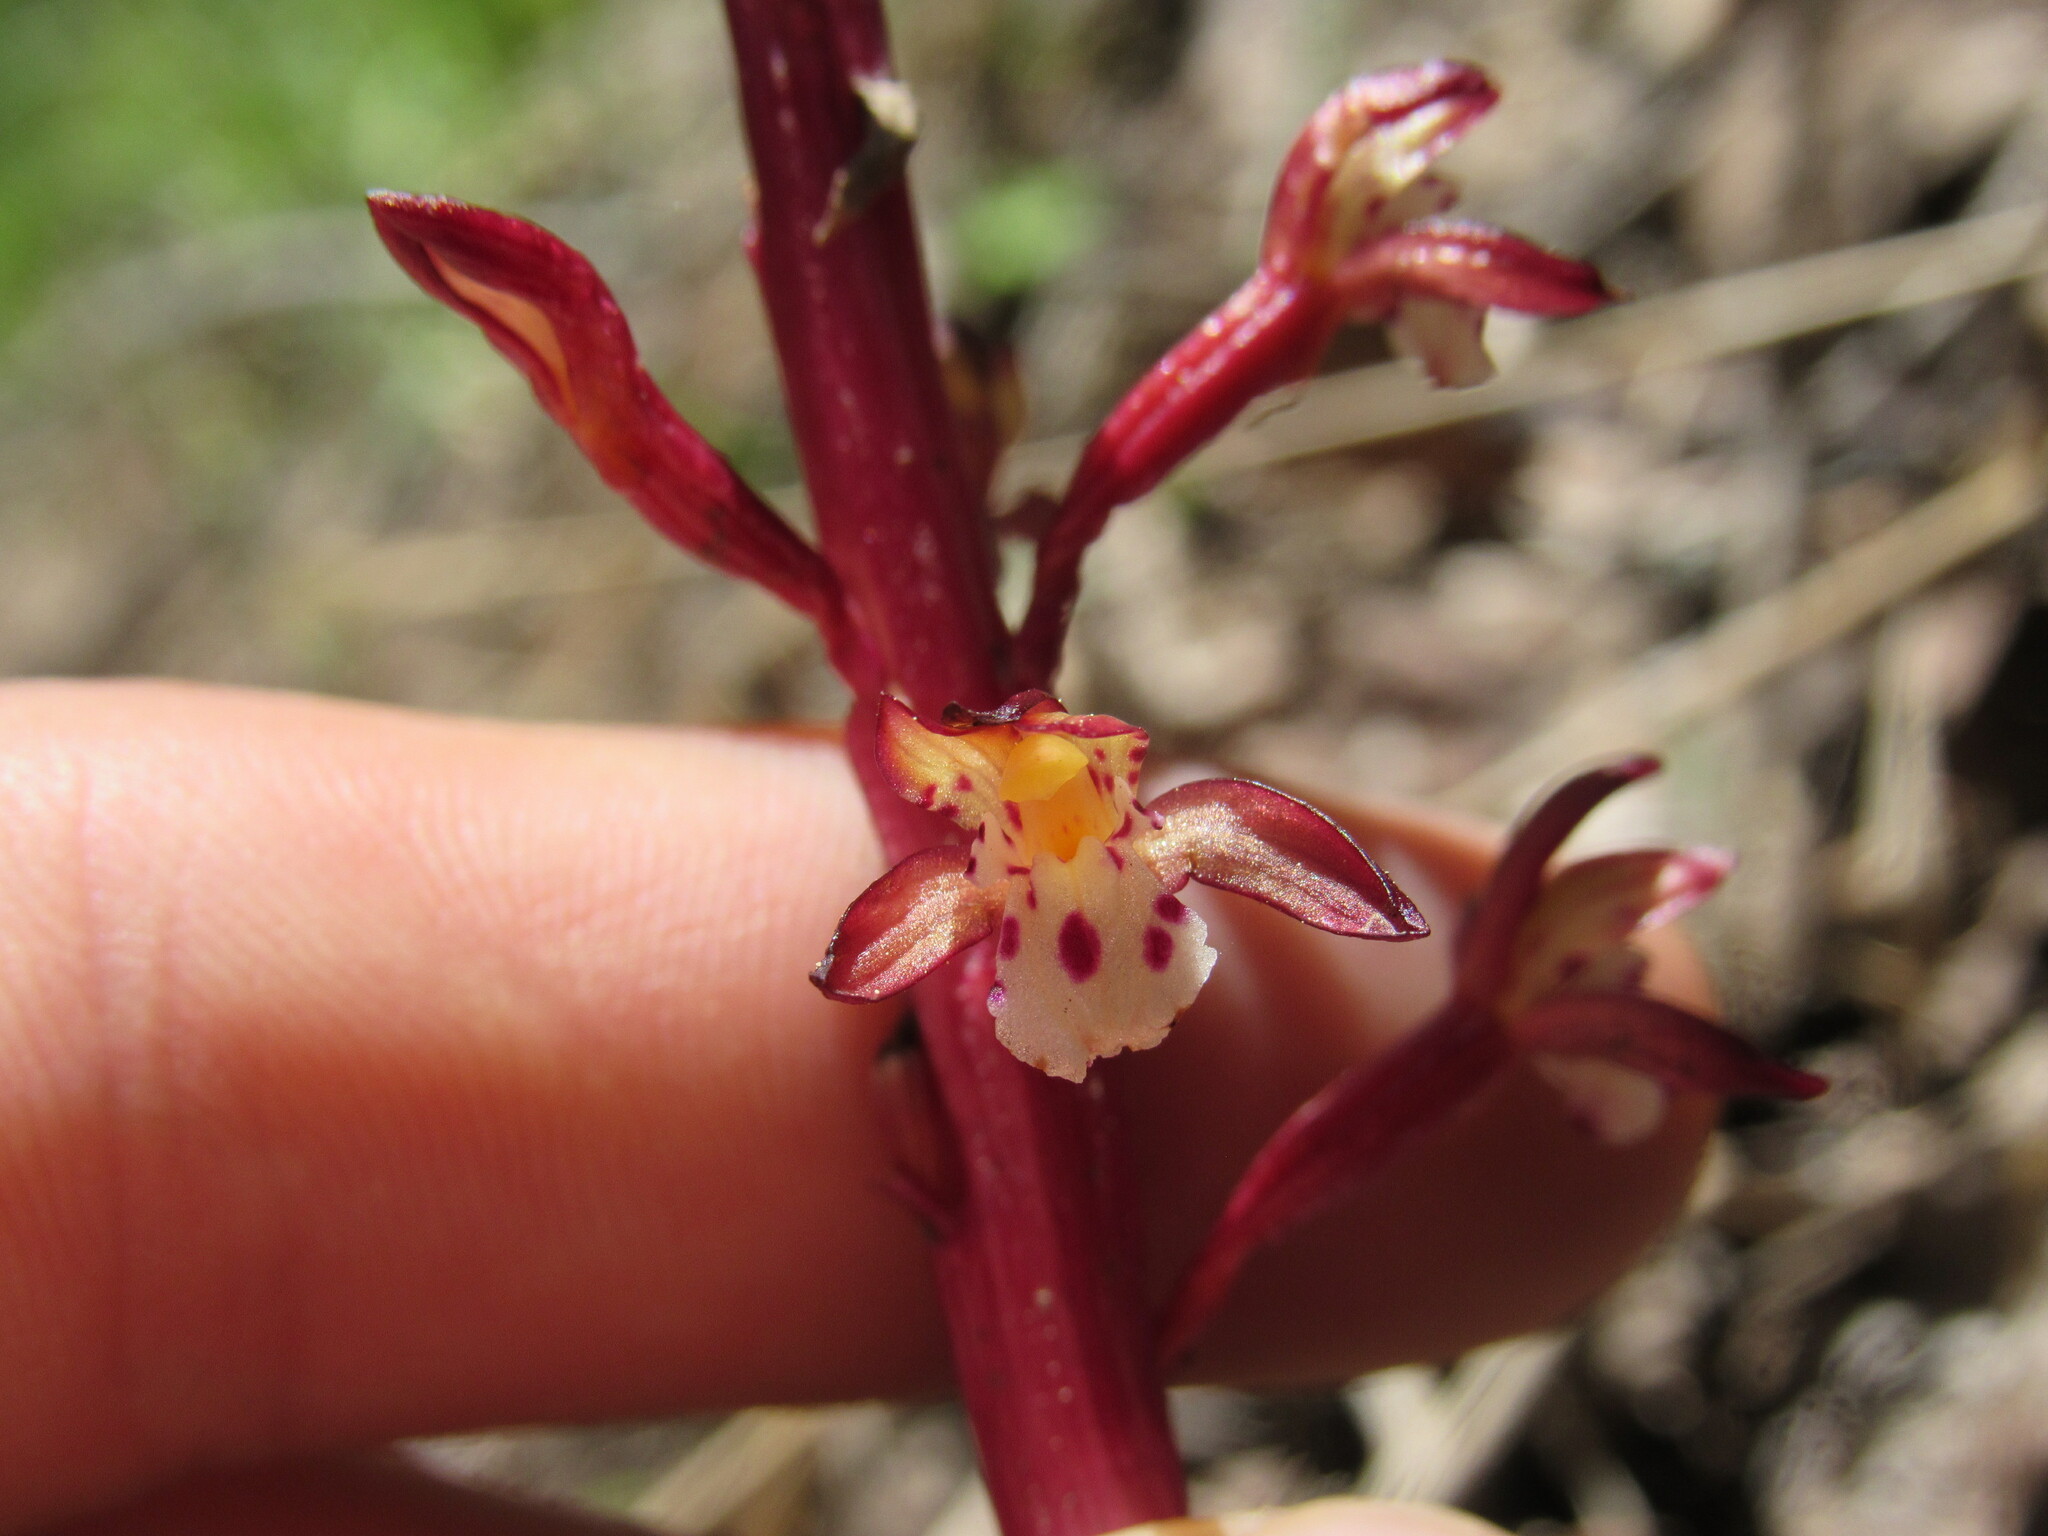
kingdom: Plantae
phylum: Tracheophyta
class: Liliopsida
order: Asparagales
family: Orchidaceae
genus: Corallorhiza
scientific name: Corallorhiza maculata
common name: Spotted coralroot
